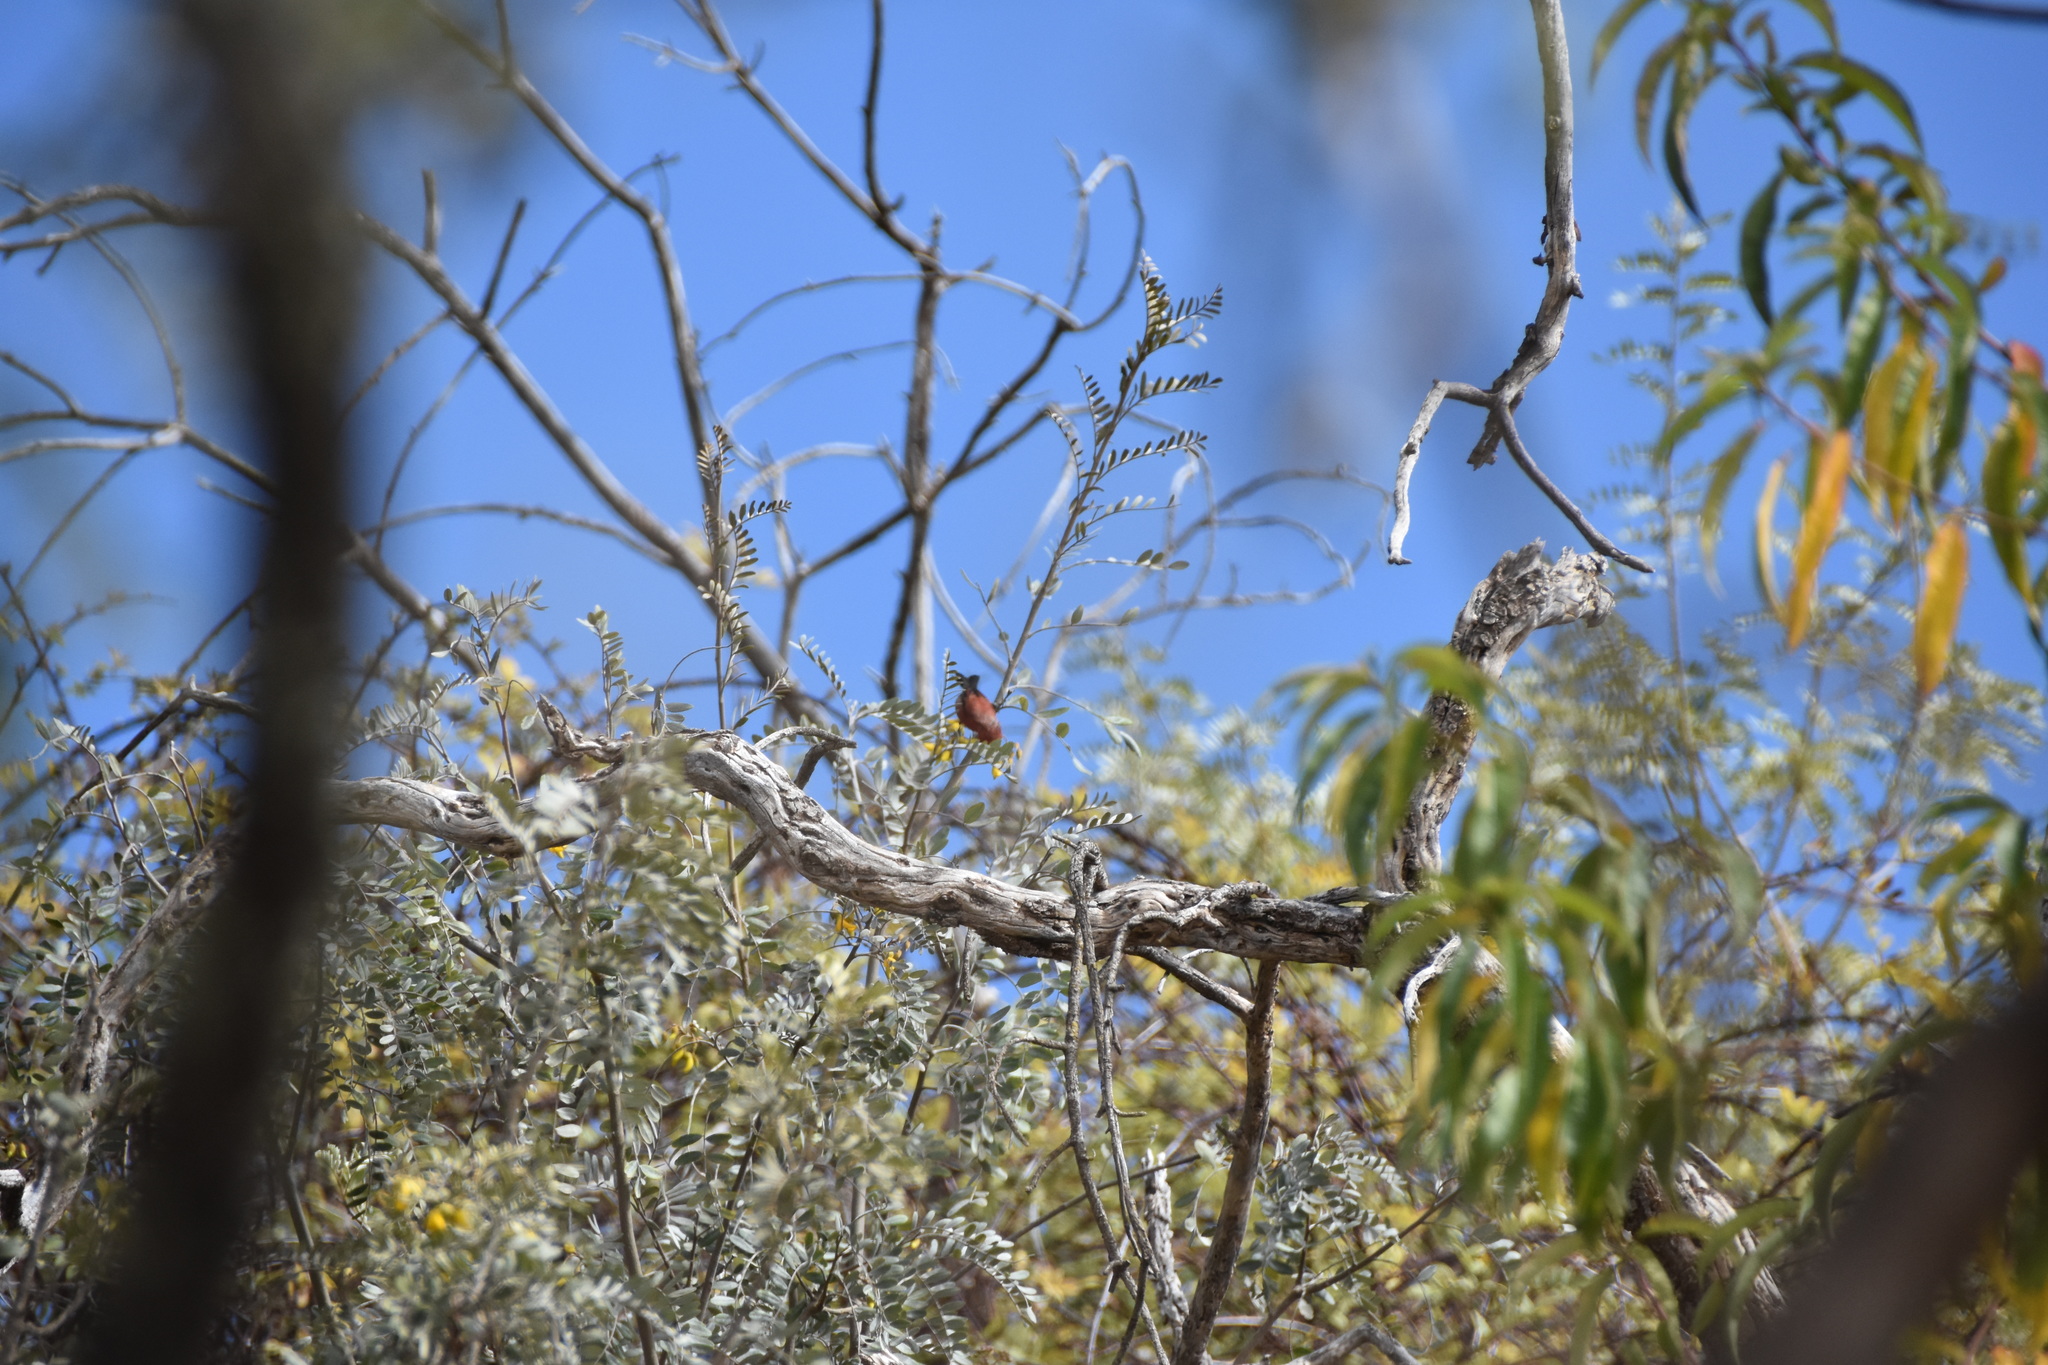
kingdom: Animalia
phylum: Chordata
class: Aves
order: Passeriformes
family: Fringillidae
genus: Himatione
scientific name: Himatione sanguinea
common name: Apapane
